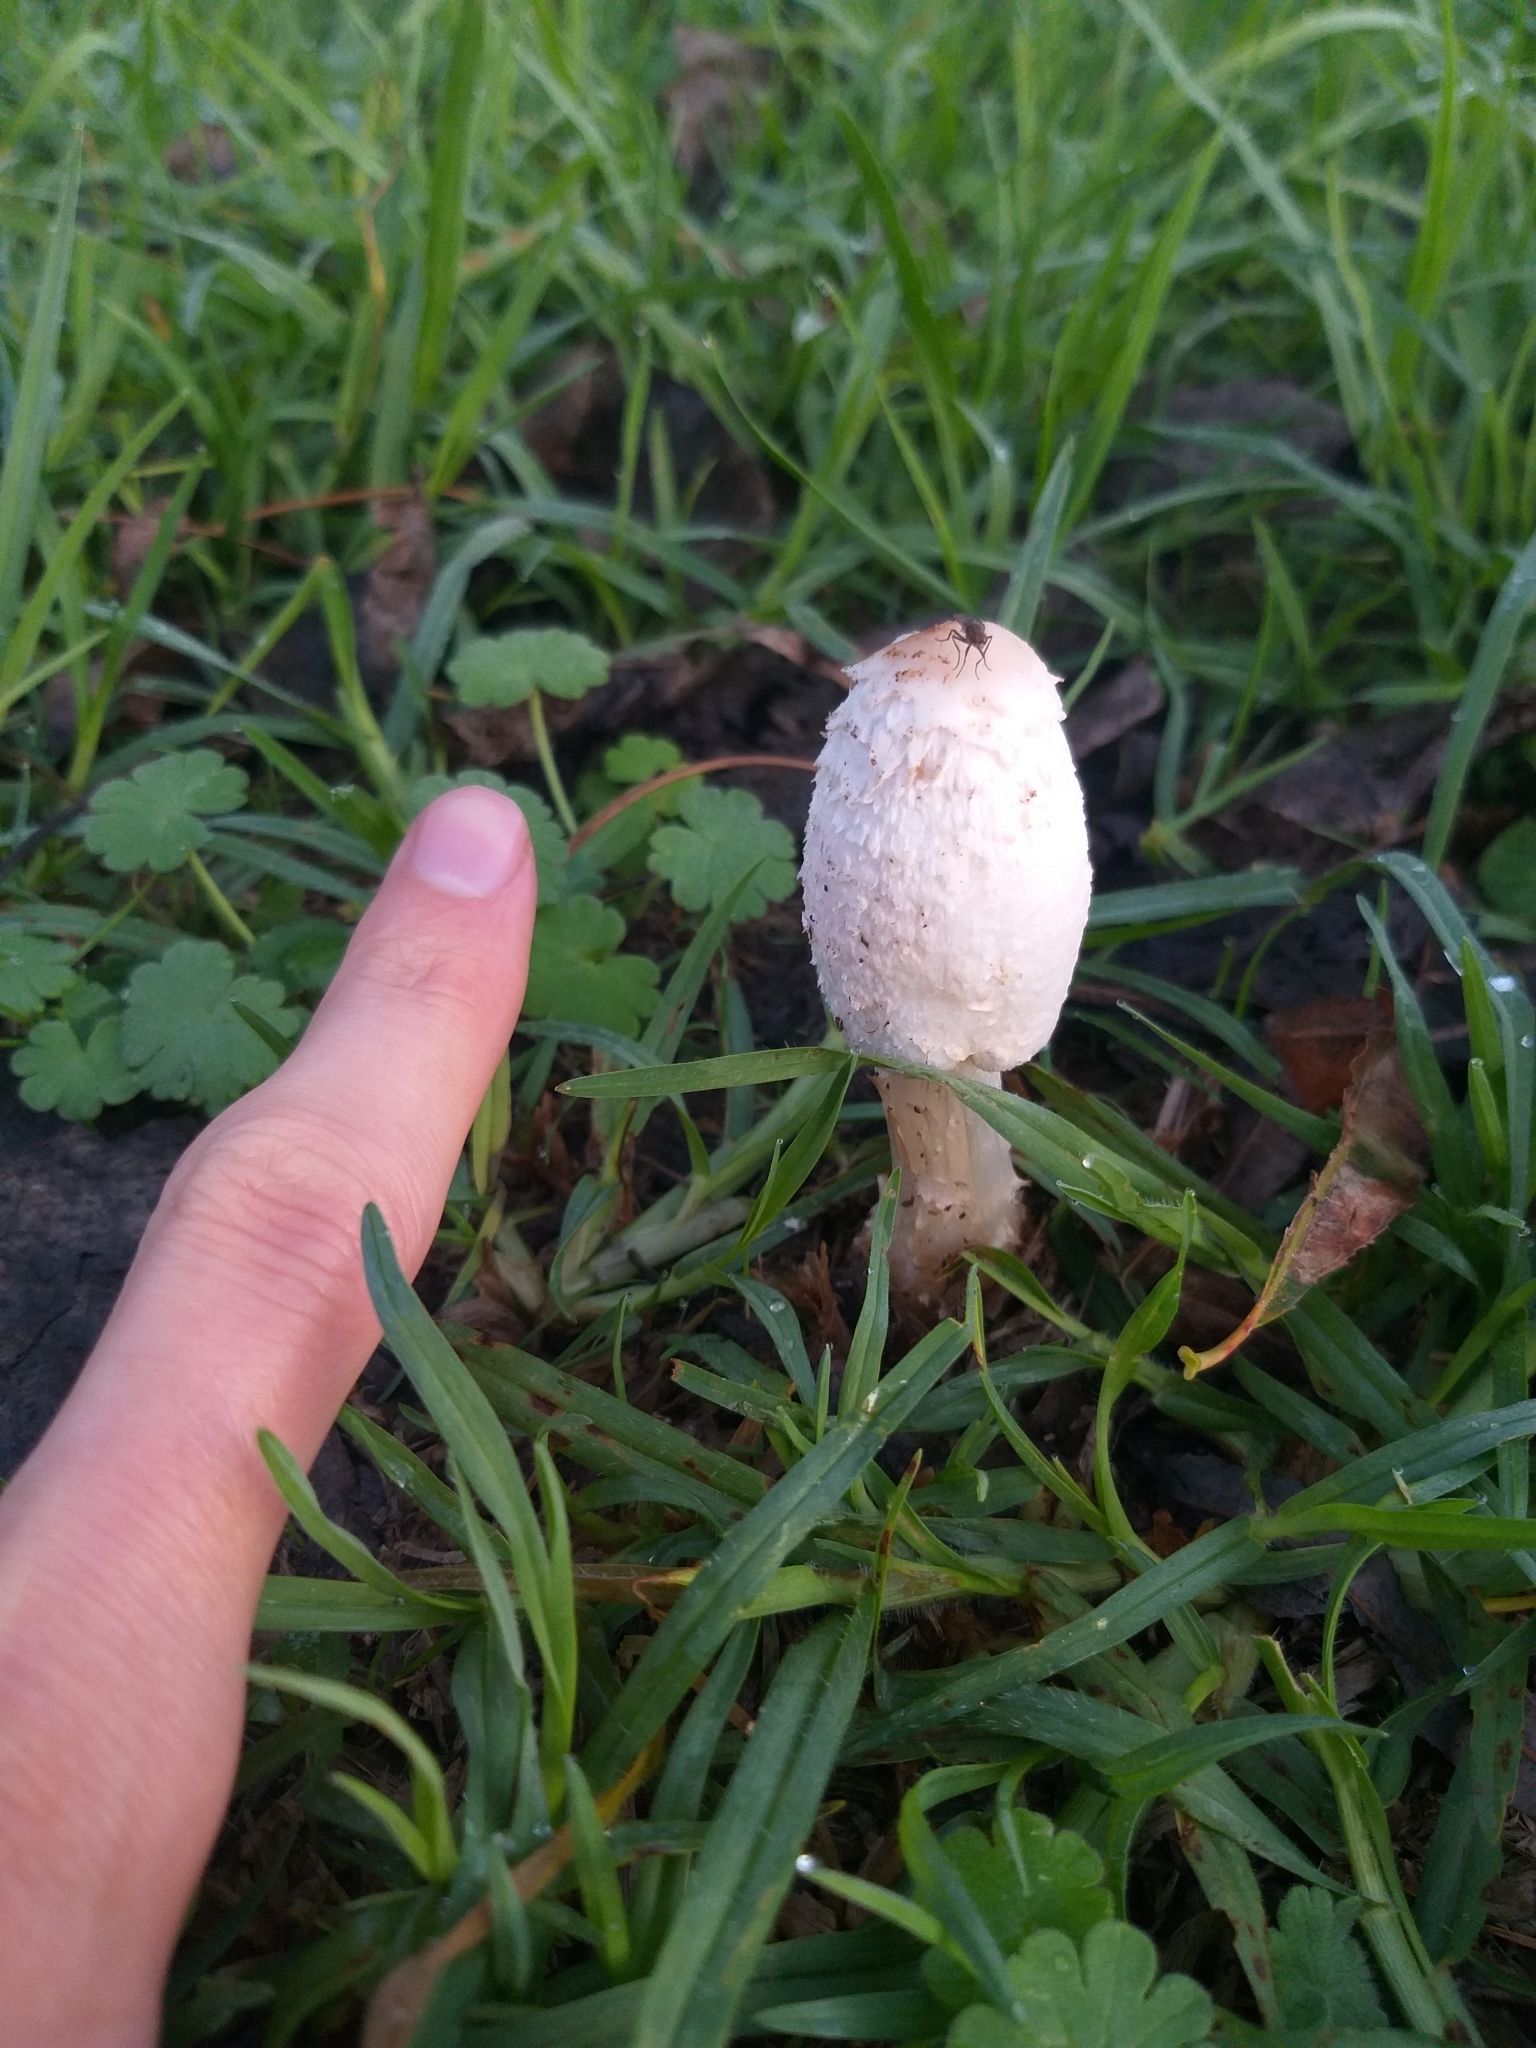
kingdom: Fungi
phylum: Basidiomycota
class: Agaricomycetes
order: Agaricales
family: Agaricaceae
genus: Coprinus
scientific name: Coprinus comatus
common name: Lawyer's wig
